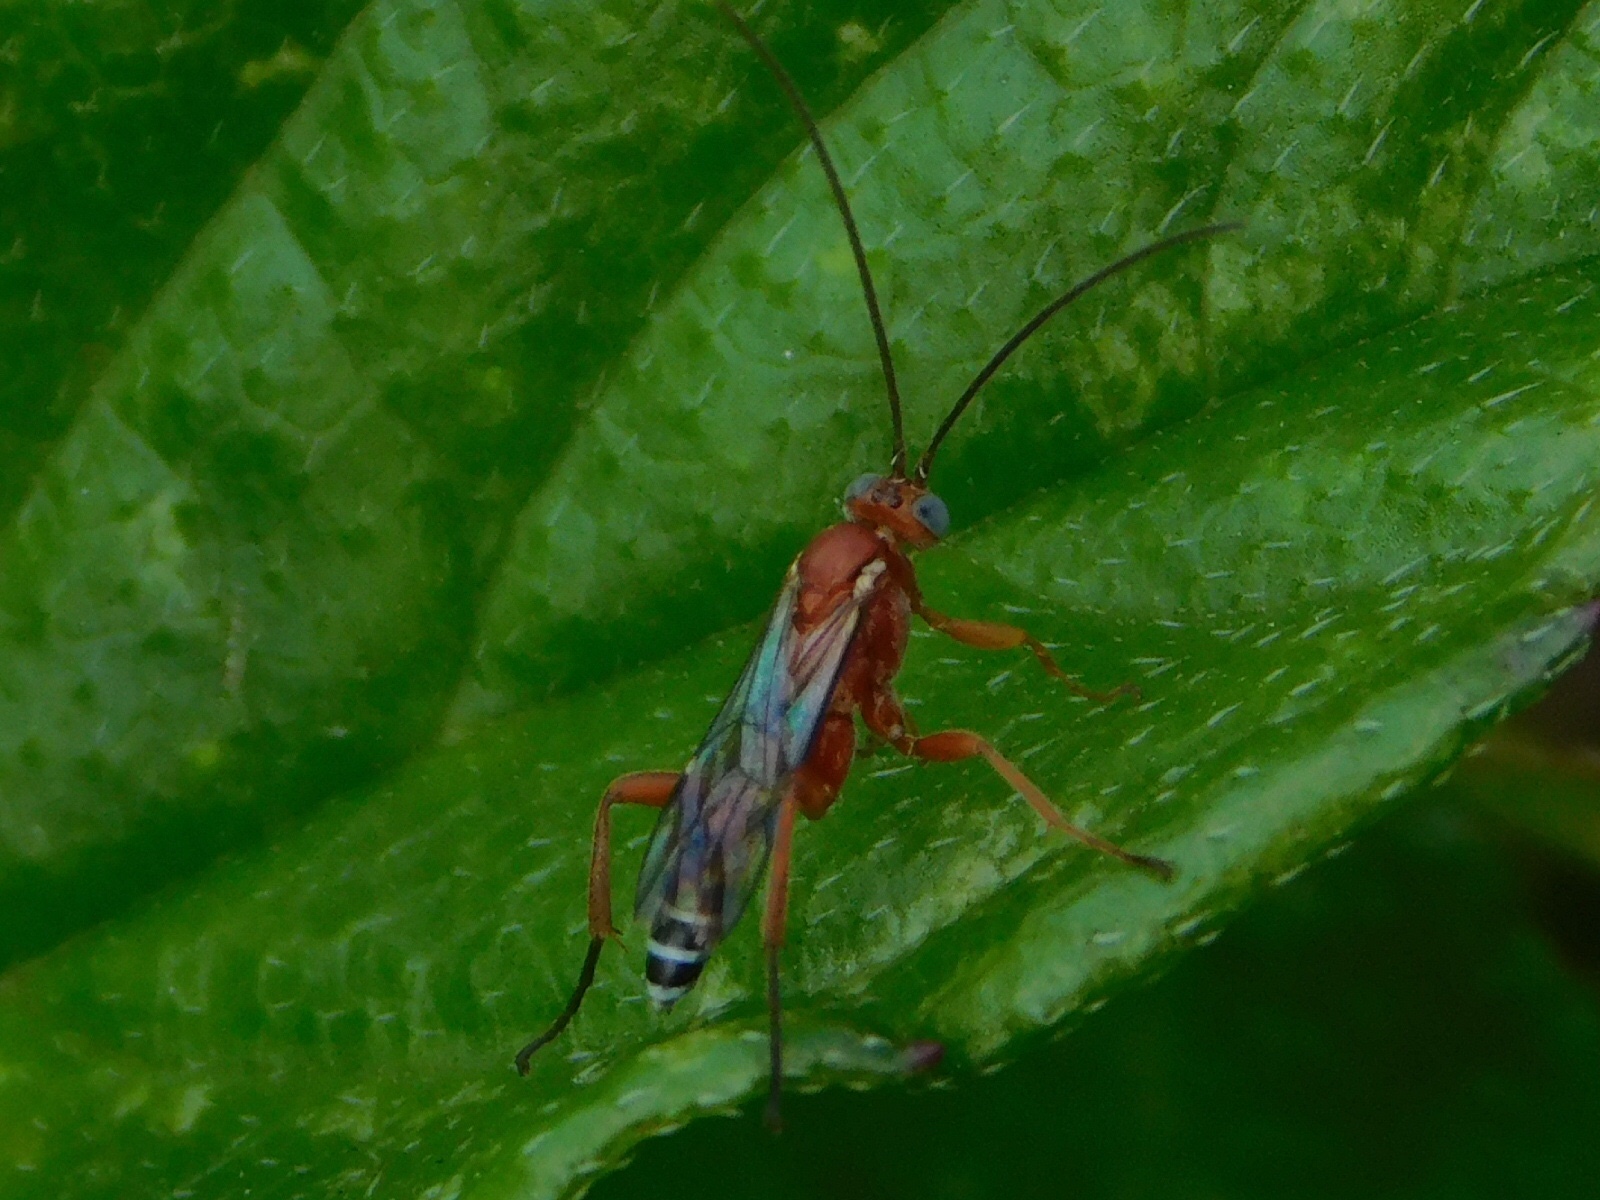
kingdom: Animalia
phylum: Arthropoda
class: Insecta
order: Hymenoptera
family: Ichneumonidae
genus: Pimpla
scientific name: Pimpla marginella
